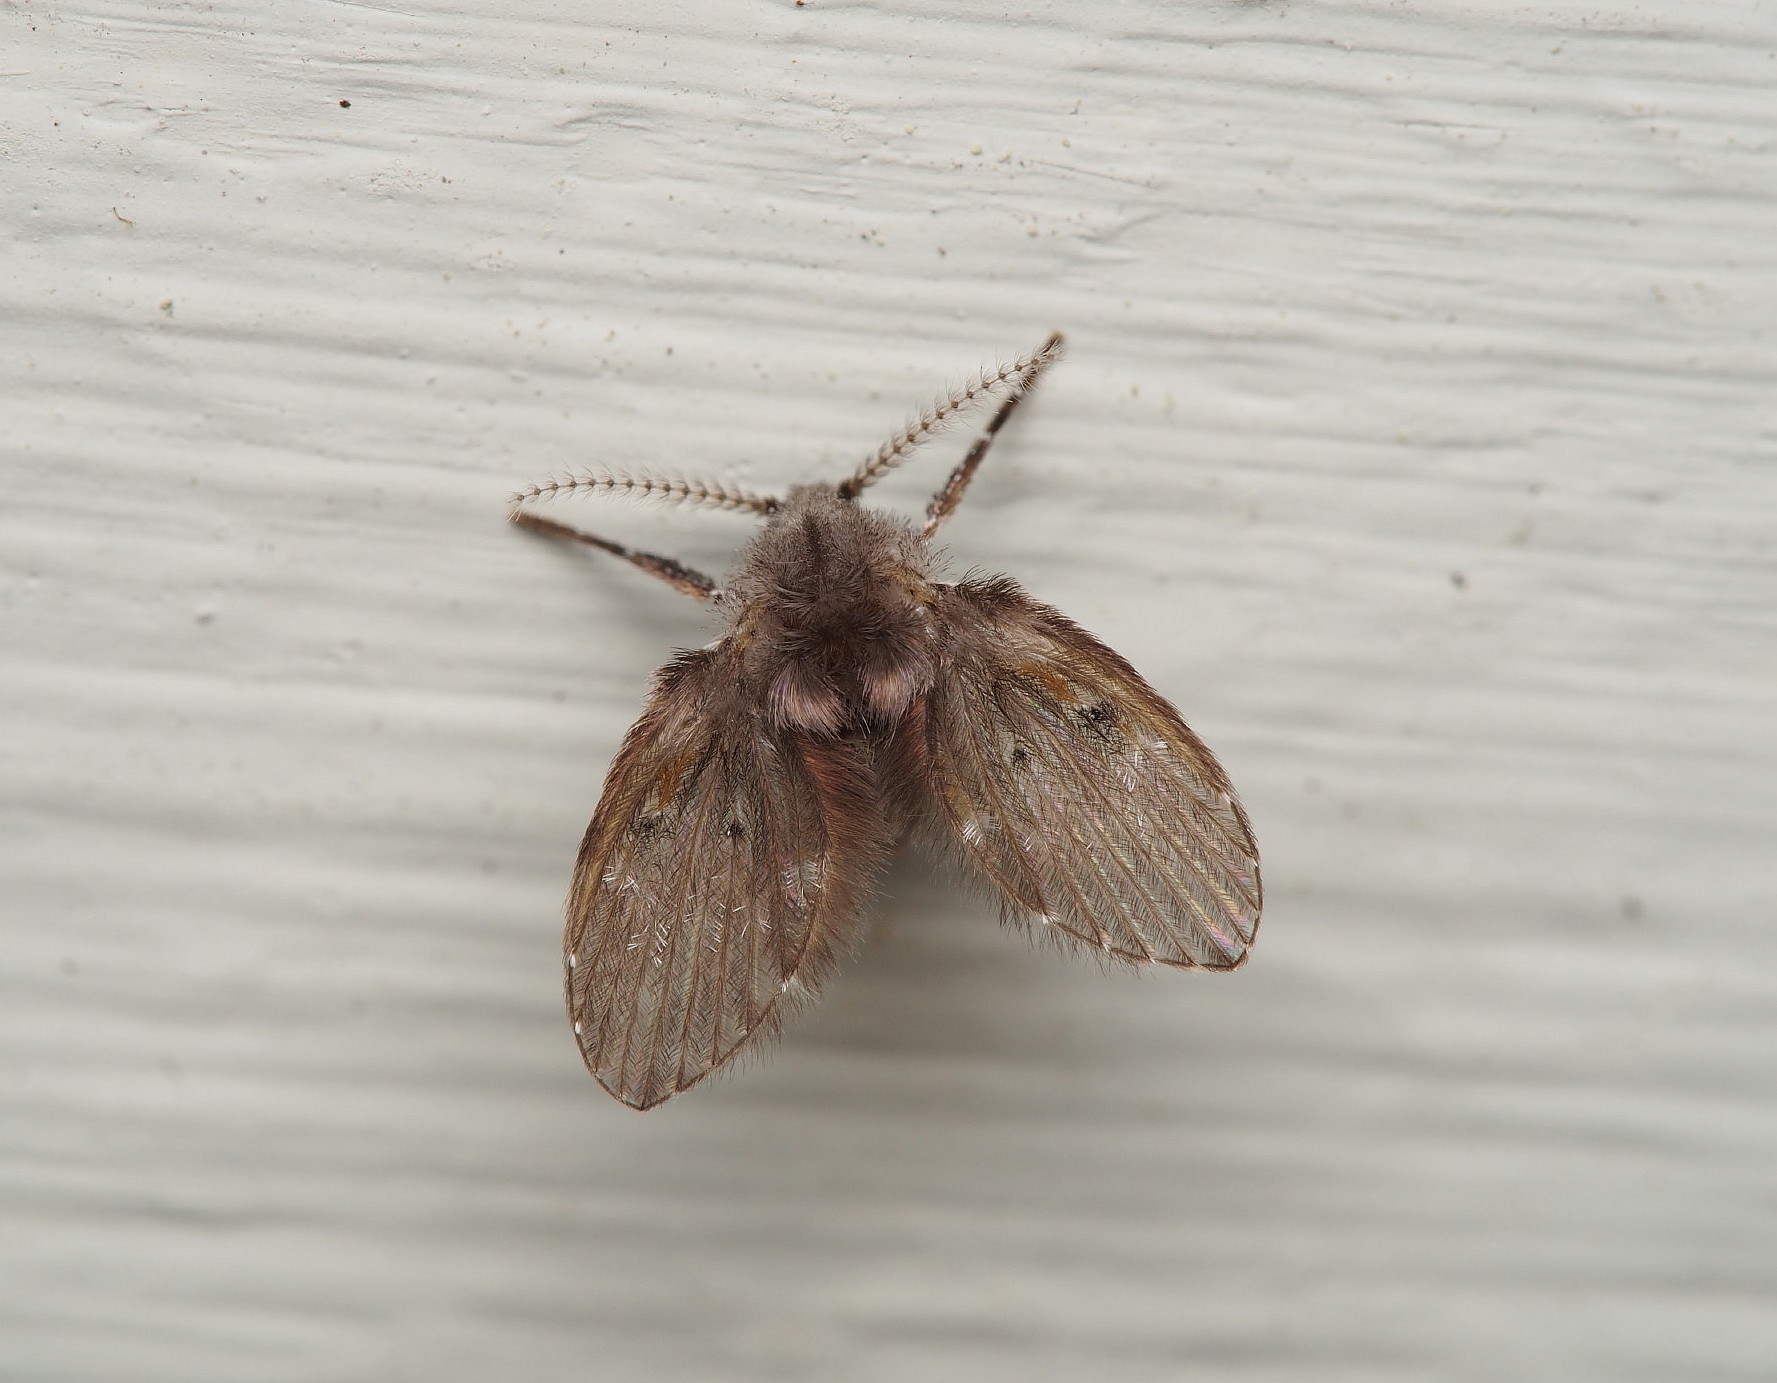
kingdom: Animalia
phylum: Arthropoda
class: Insecta
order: Diptera
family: Psychodidae
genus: Clogmia
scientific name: Clogmia albipunctatus
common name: White-spotted moth fly
